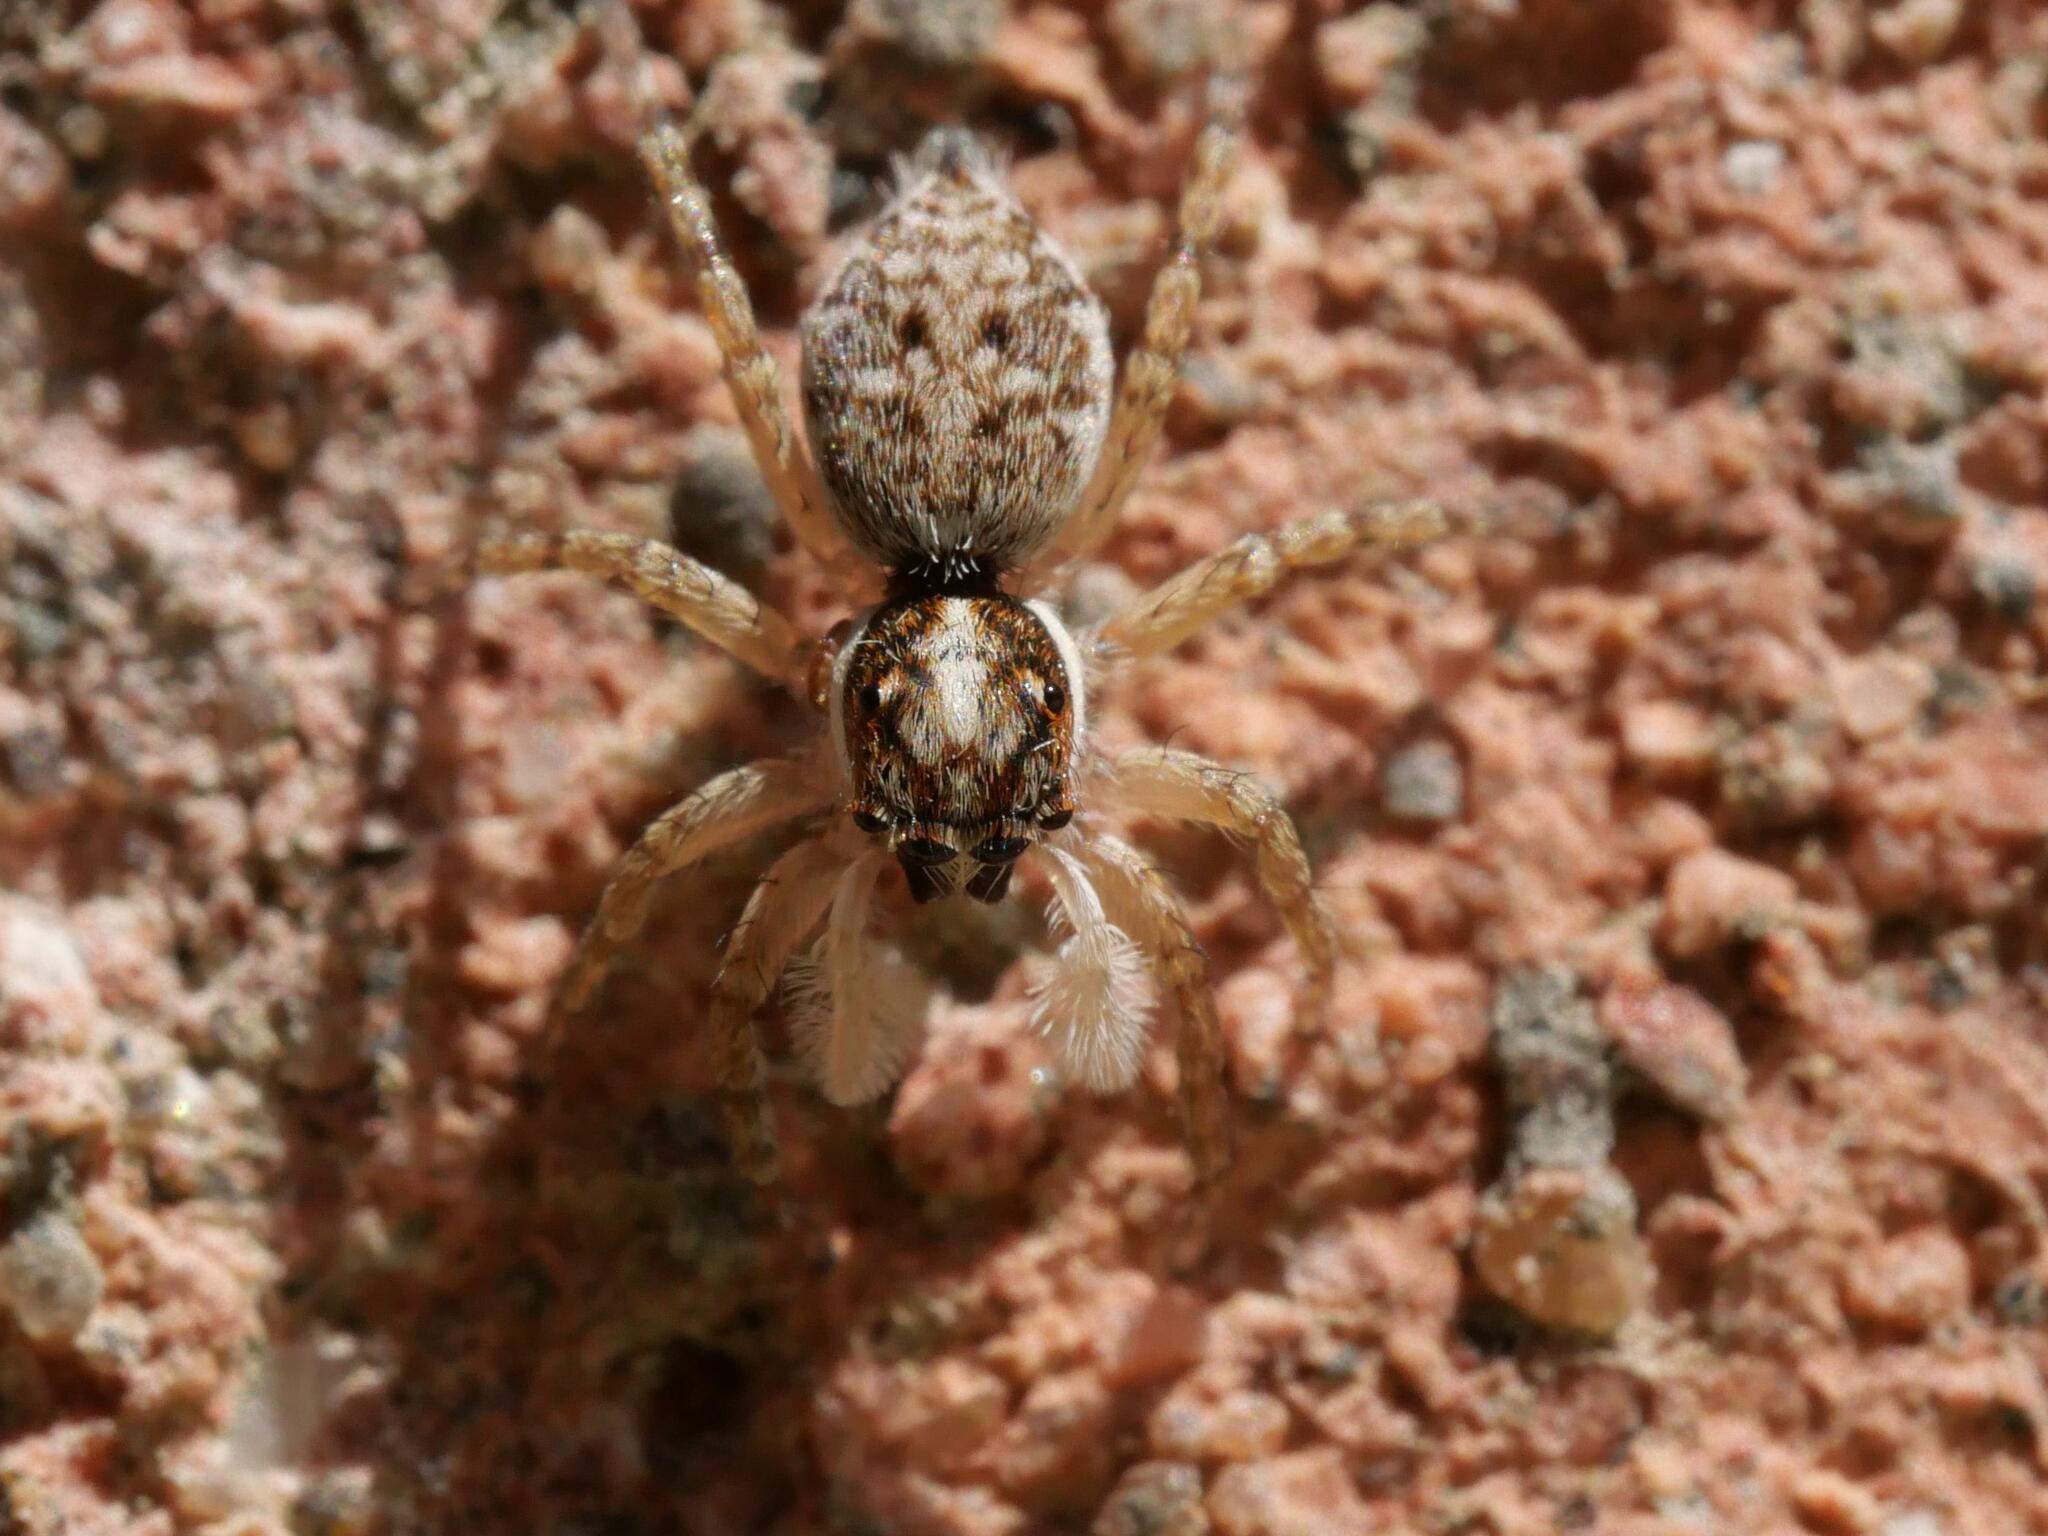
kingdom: Animalia
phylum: Arthropoda
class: Arachnida
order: Araneae
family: Salticidae
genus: Menemerus
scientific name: Menemerus semilimbatus
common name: Jumping spider
